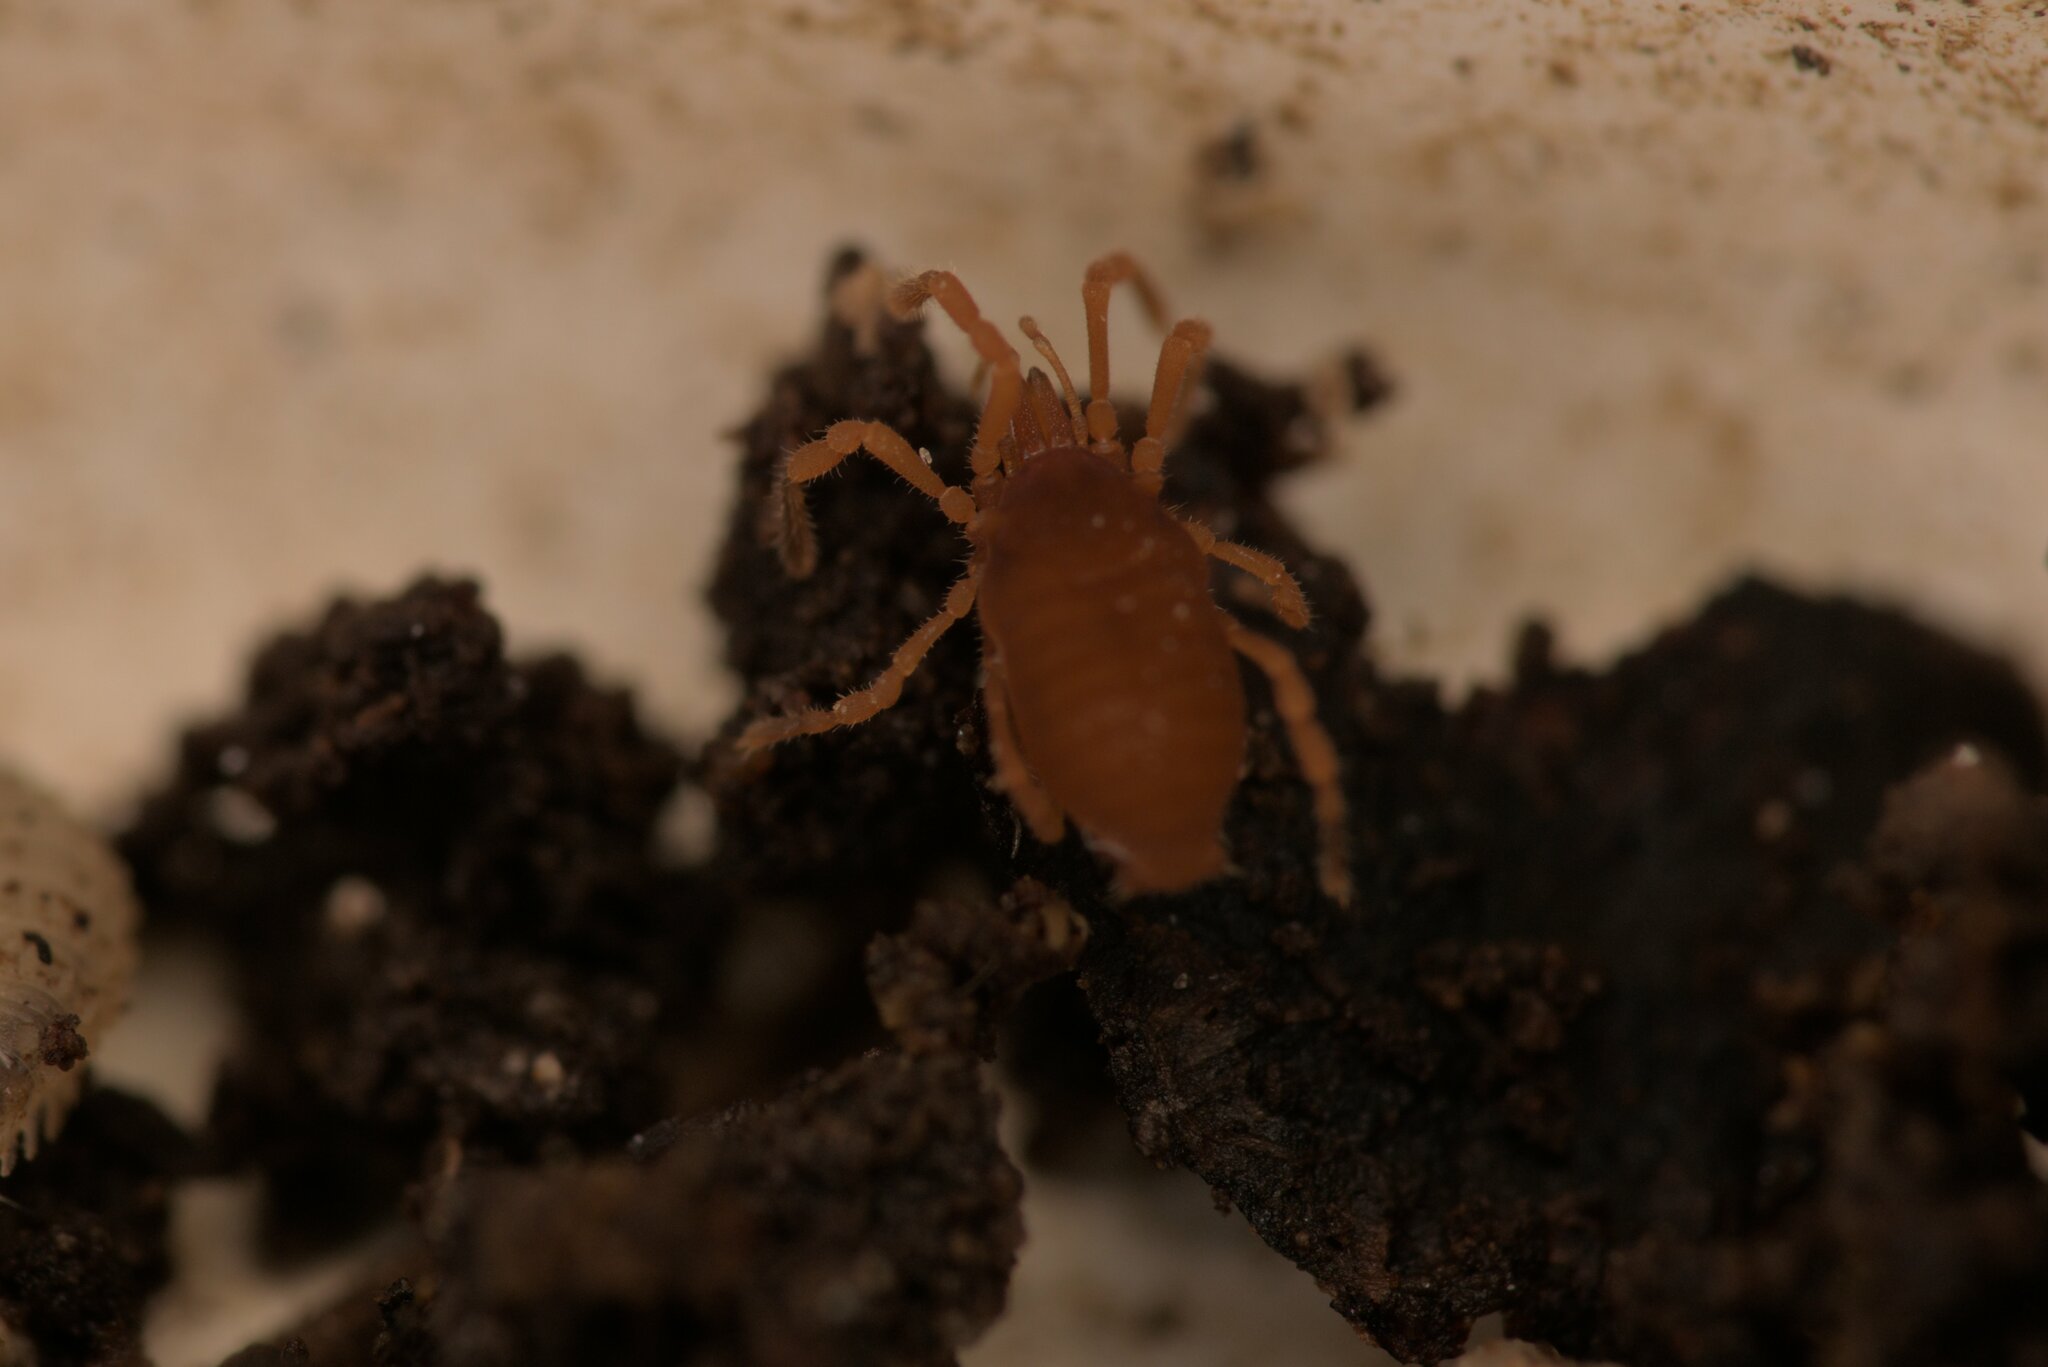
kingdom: Animalia
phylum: Arthropoda
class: Arachnida
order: Opiliones
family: Sironidae
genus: Siro
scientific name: Siro rubens
